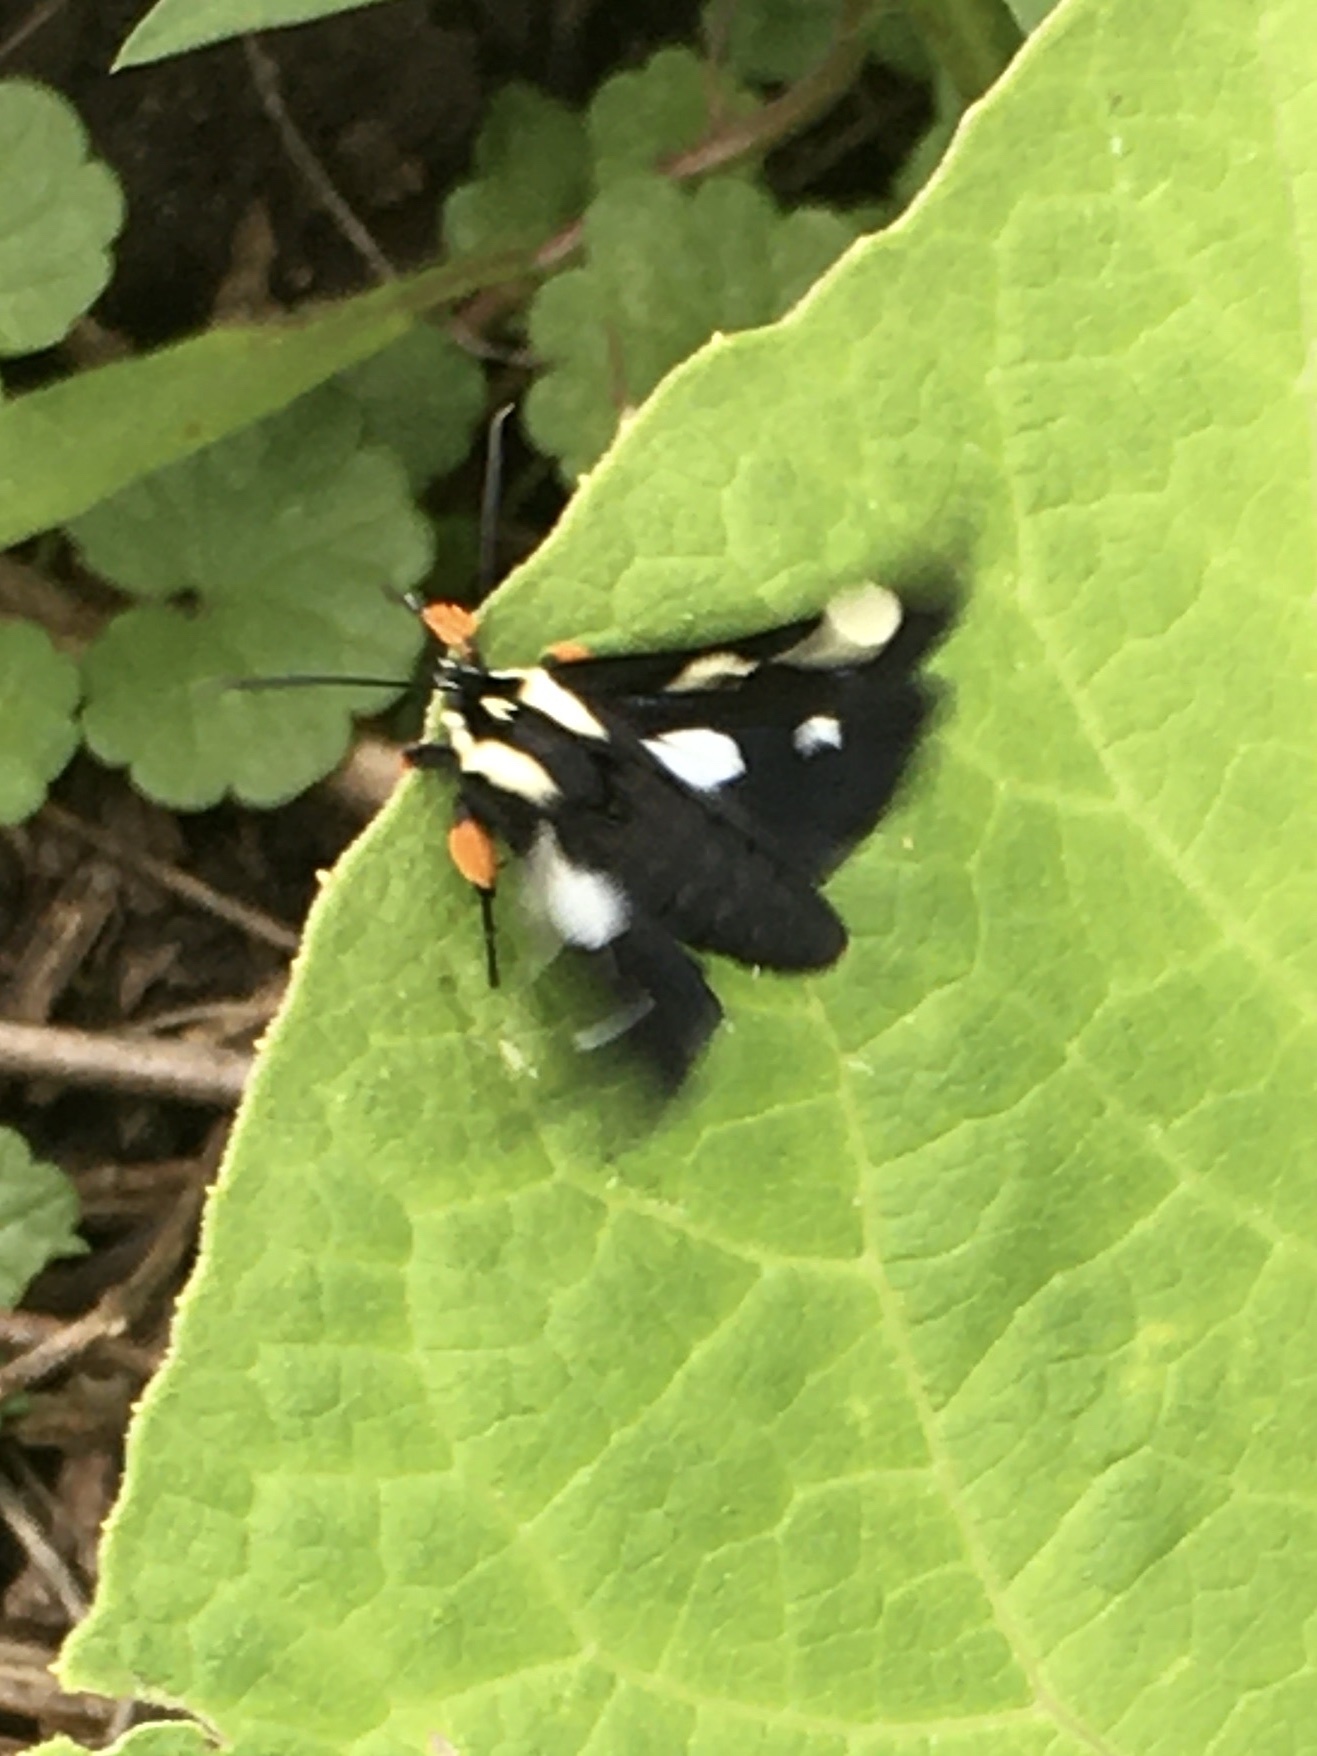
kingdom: Animalia
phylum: Arthropoda
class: Insecta
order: Lepidoptera
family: Noctuidae
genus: Alypia
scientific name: Alypia octomaculata
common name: Eight-spotted forester
